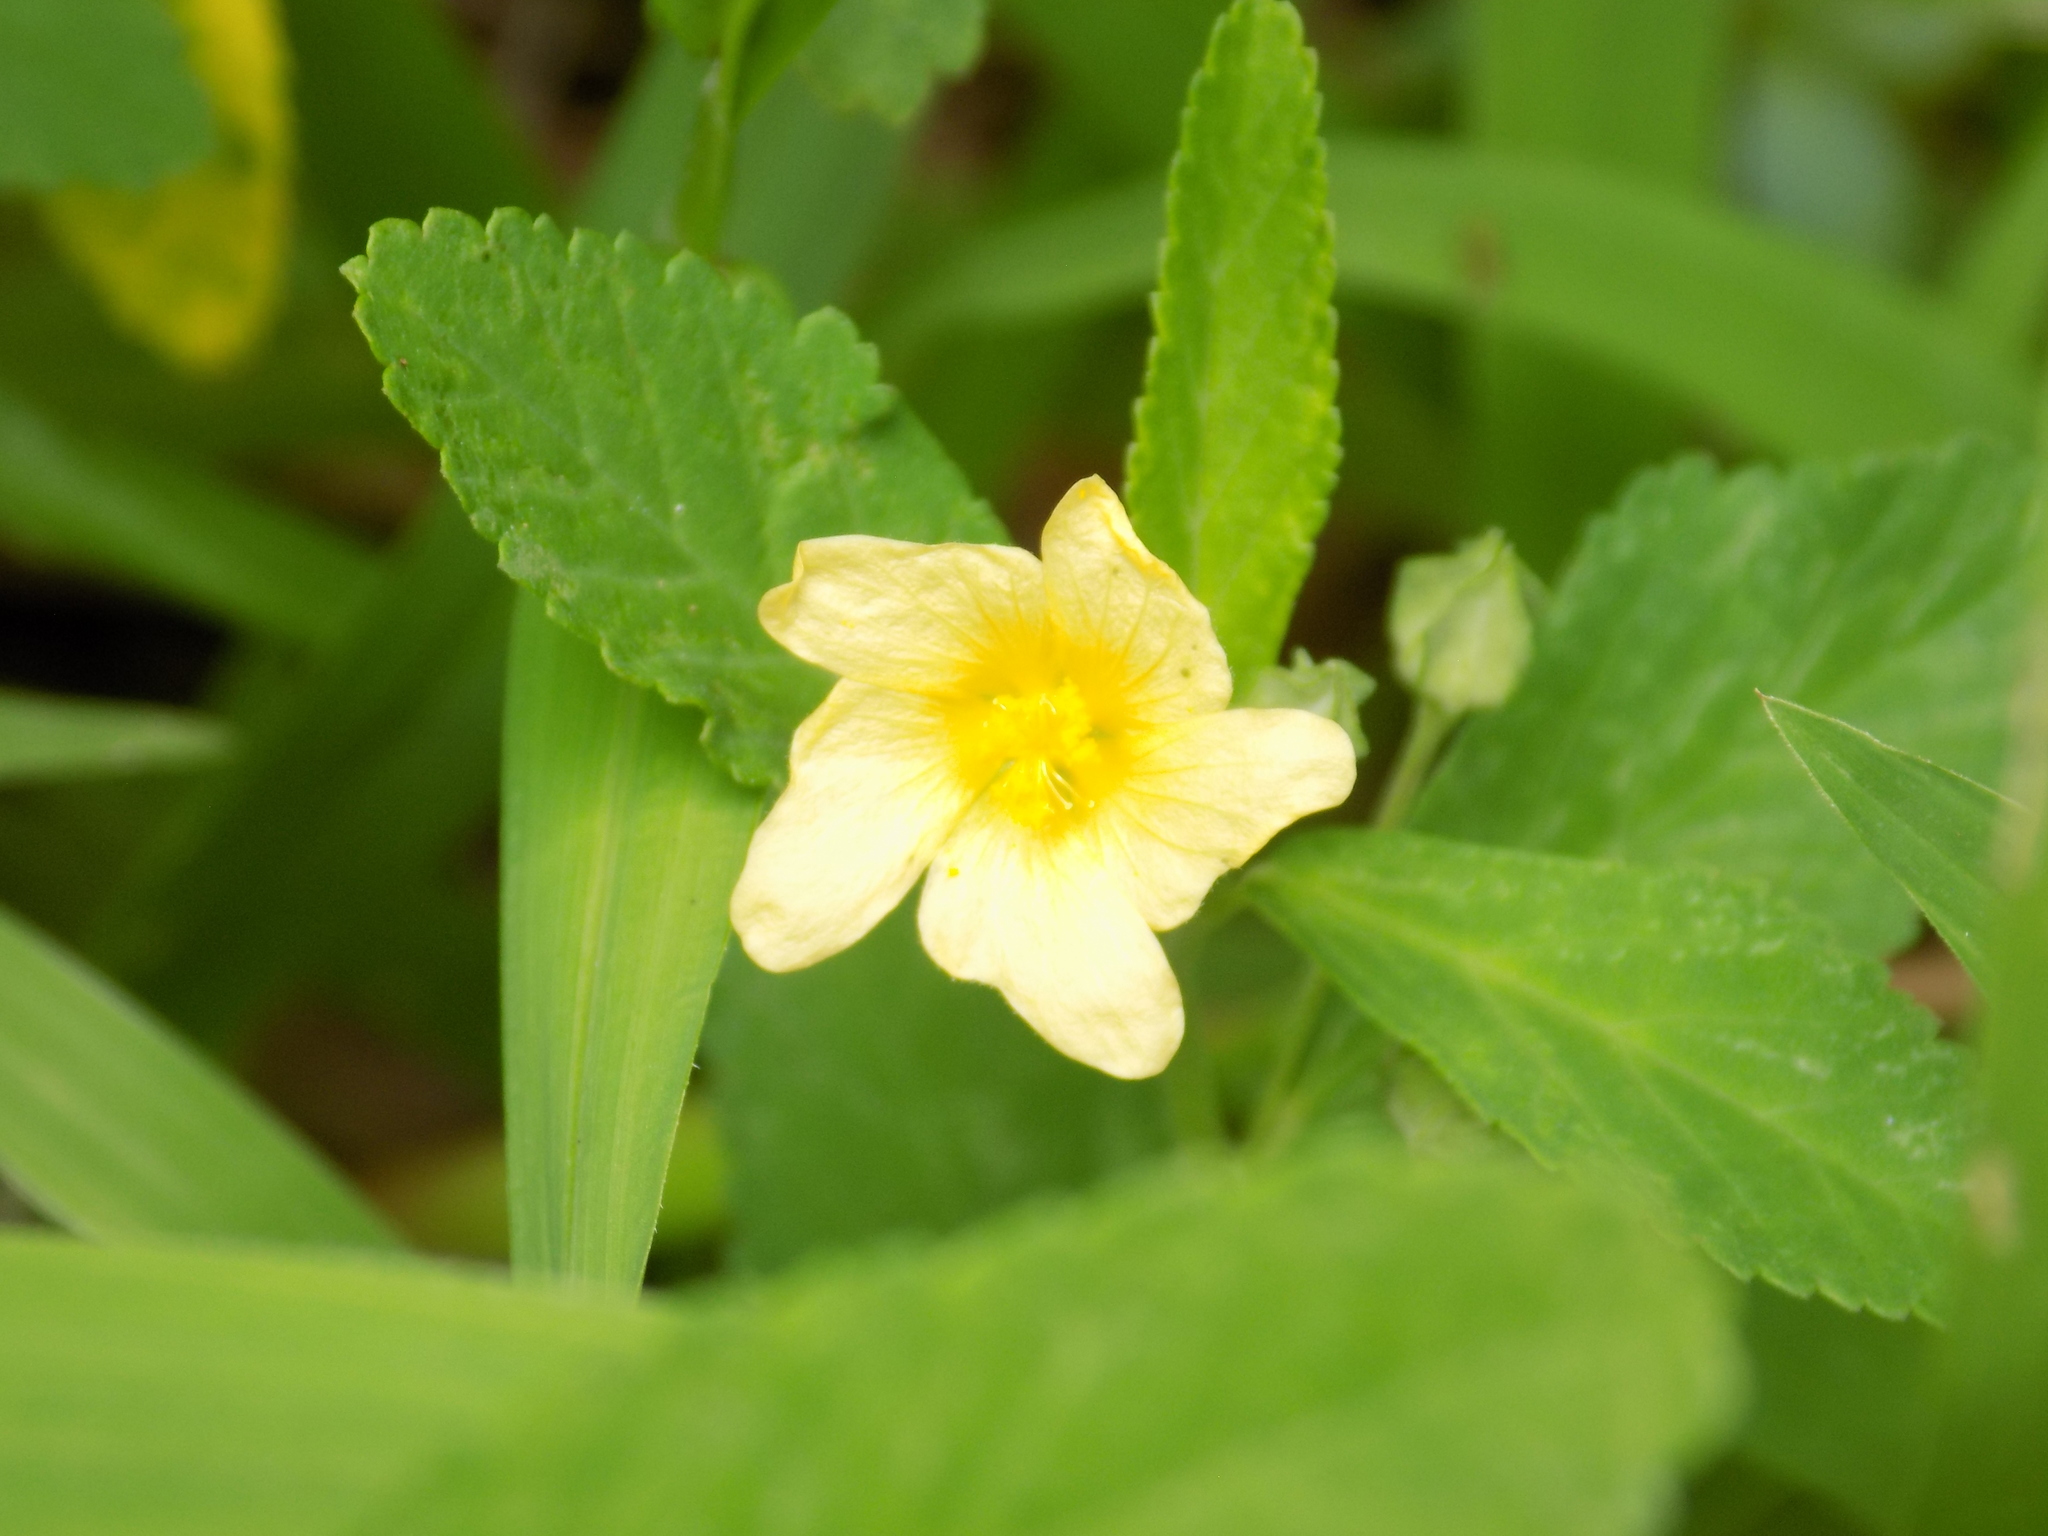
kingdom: Plantae
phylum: Tracheophyta
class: Magnoliopsida
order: Malvales
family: Malvaceae
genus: Sida
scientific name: Sida rhombifolia
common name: Queensland-hemp
